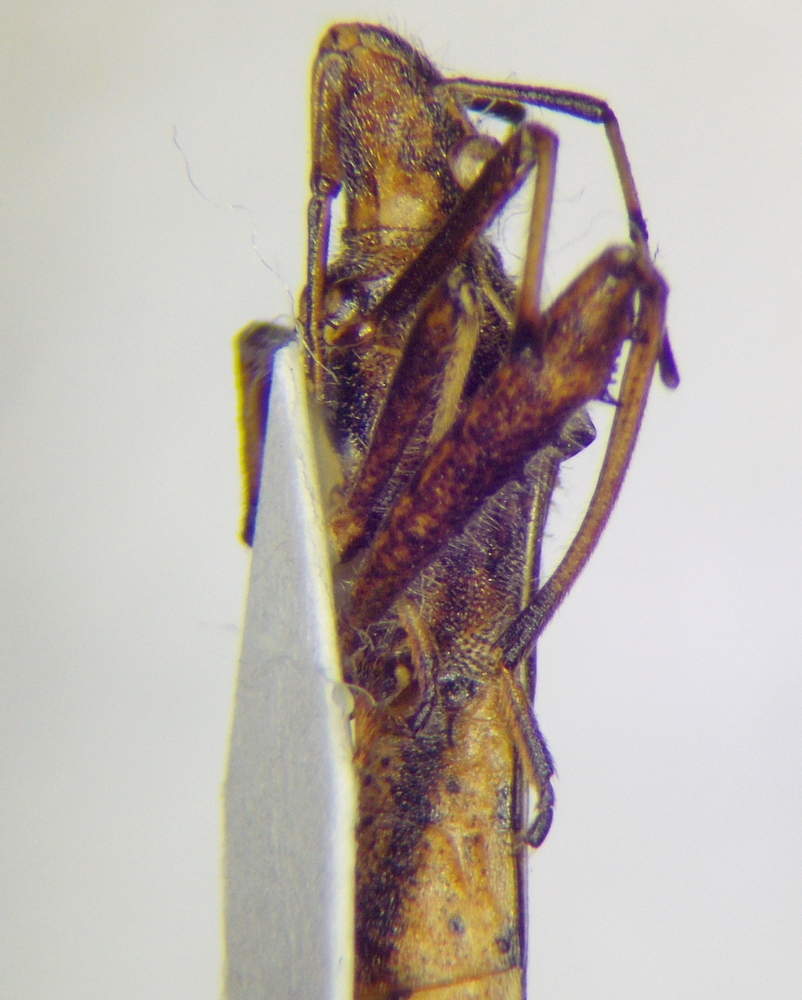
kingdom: Animalia
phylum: Arthropoda
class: Insecta
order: Hemiptera
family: Alydidae
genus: Camptopus
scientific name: Camptopus lateralis
